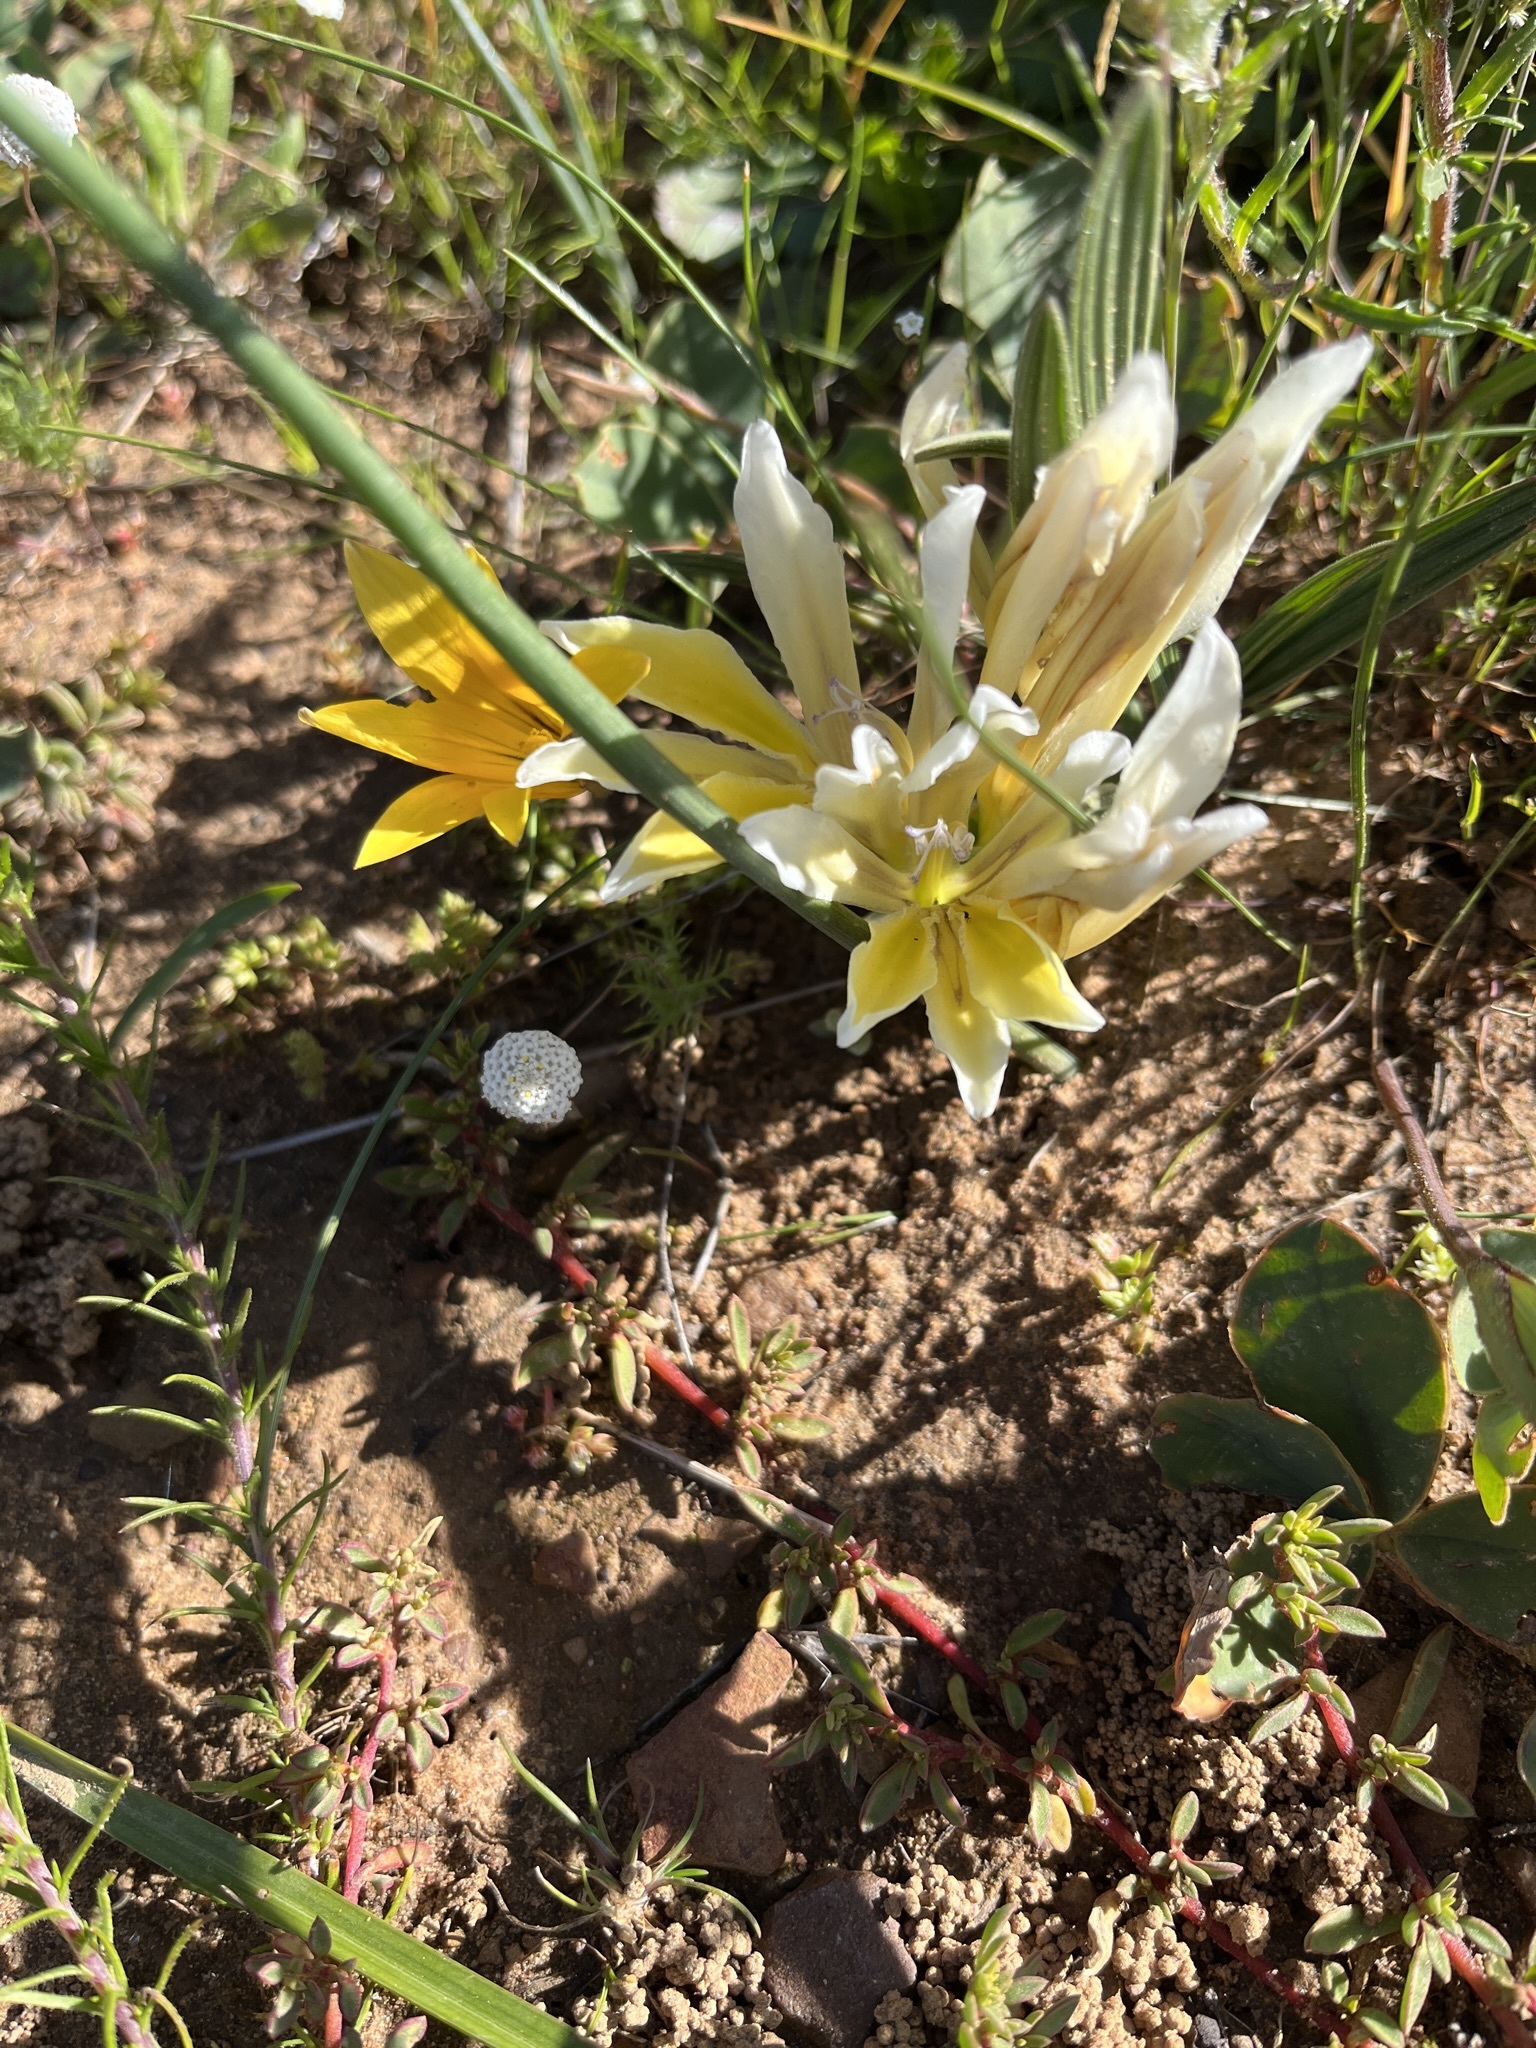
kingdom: Plantae
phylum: Tracheophyta
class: Liliopsida
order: Asparagales
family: Iridaceae
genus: Babiana
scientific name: Babiana vanzijliae
